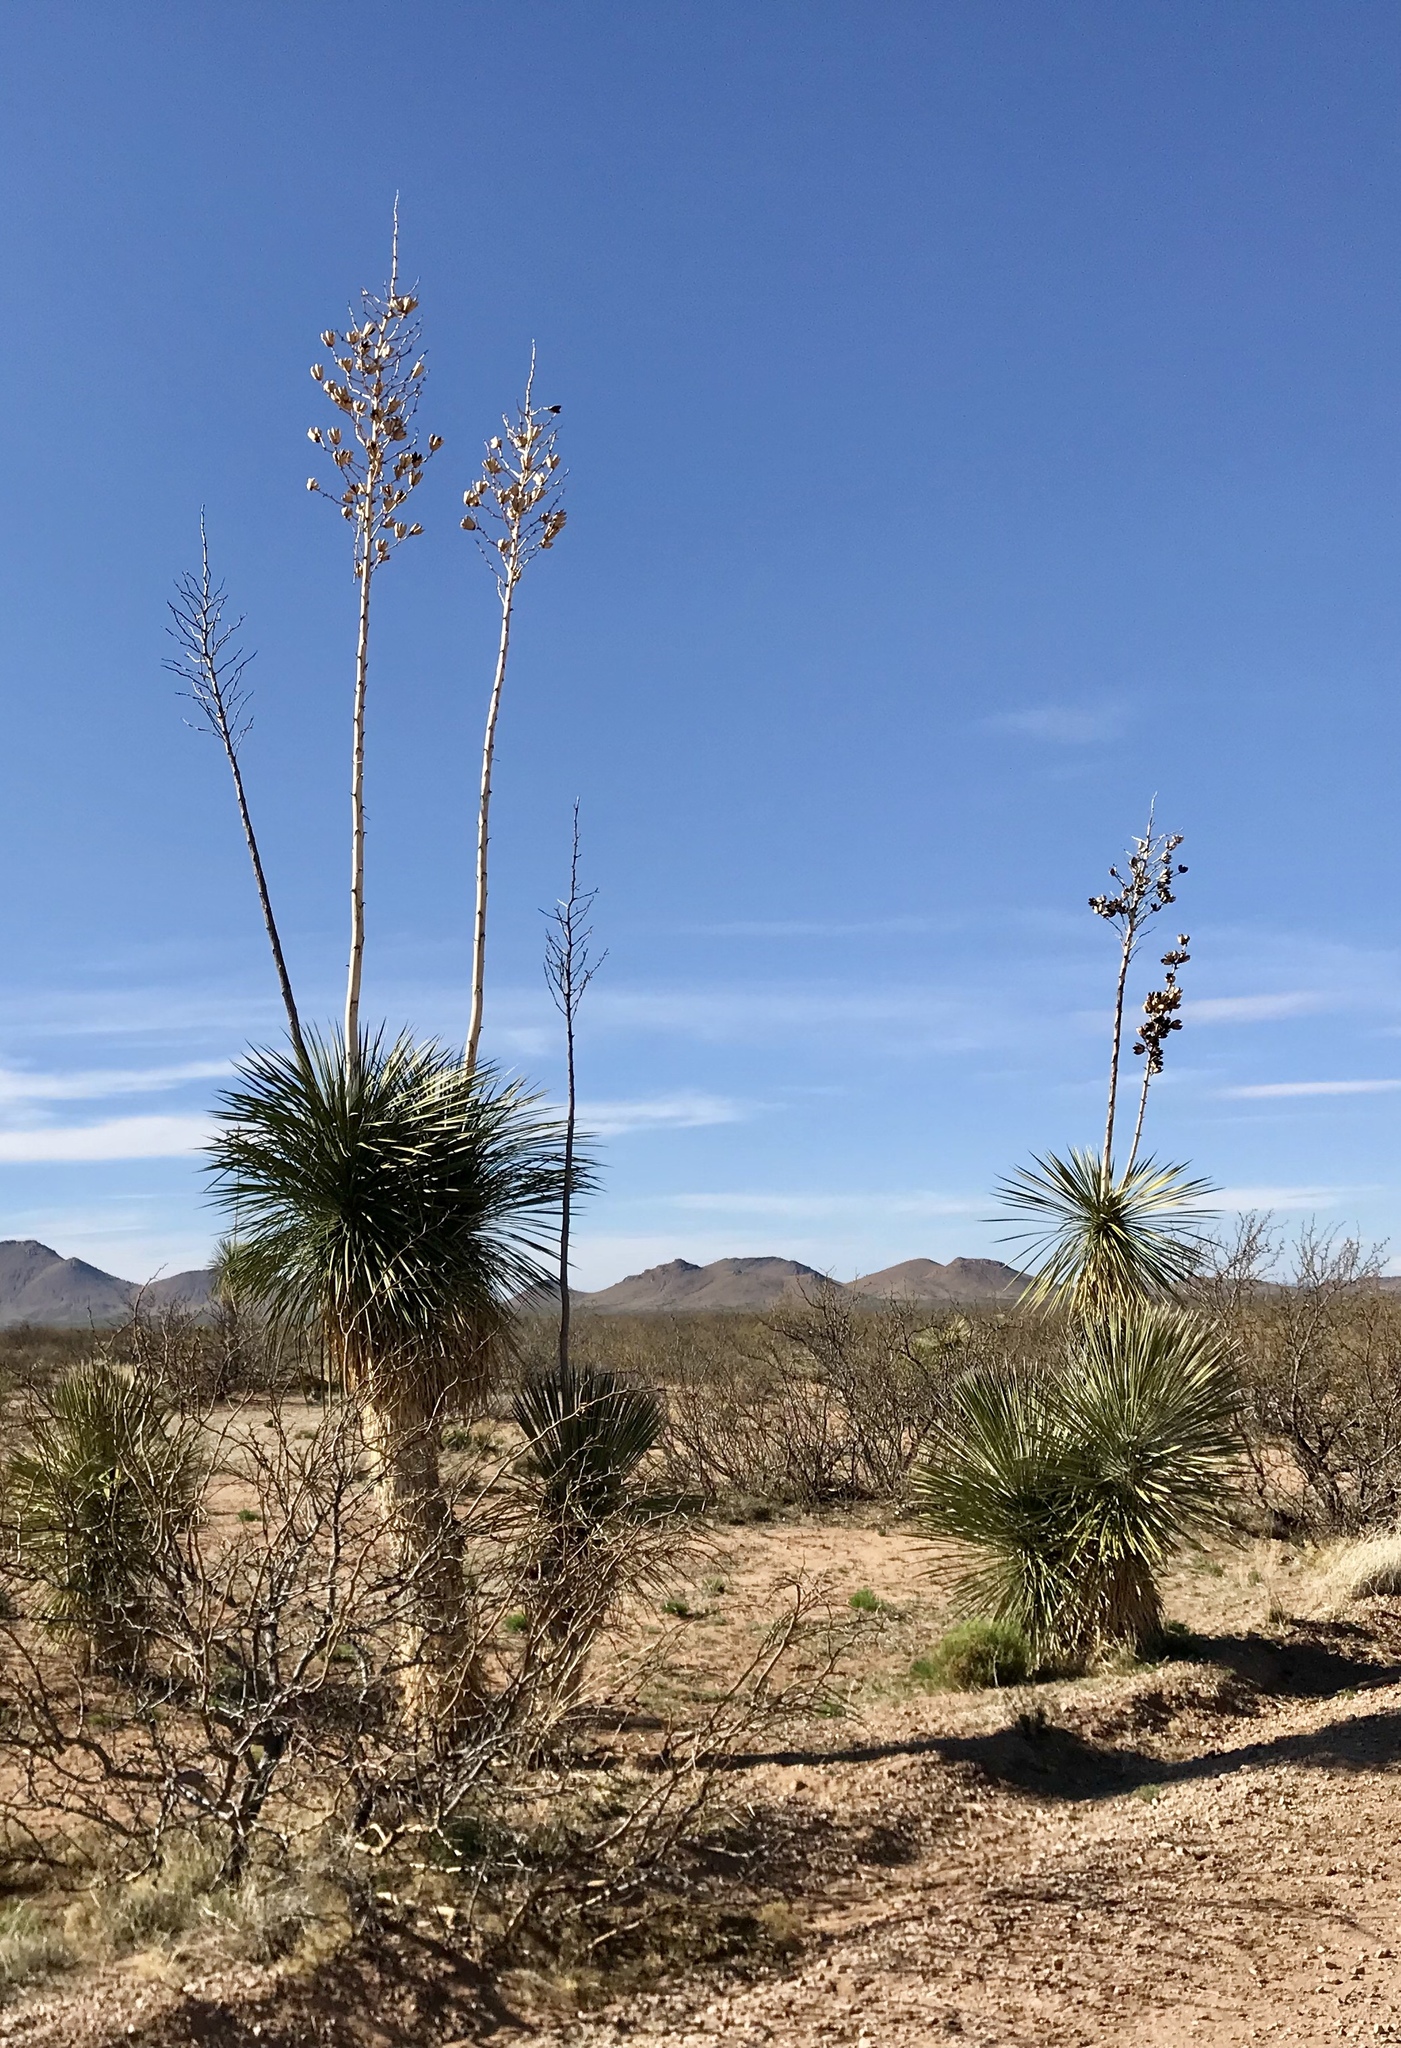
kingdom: Plantae
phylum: Tracheophyta
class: Liliopsida
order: Asparagales
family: Asparagaceae
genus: Yucca
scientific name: Yucca elata
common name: Palmella
